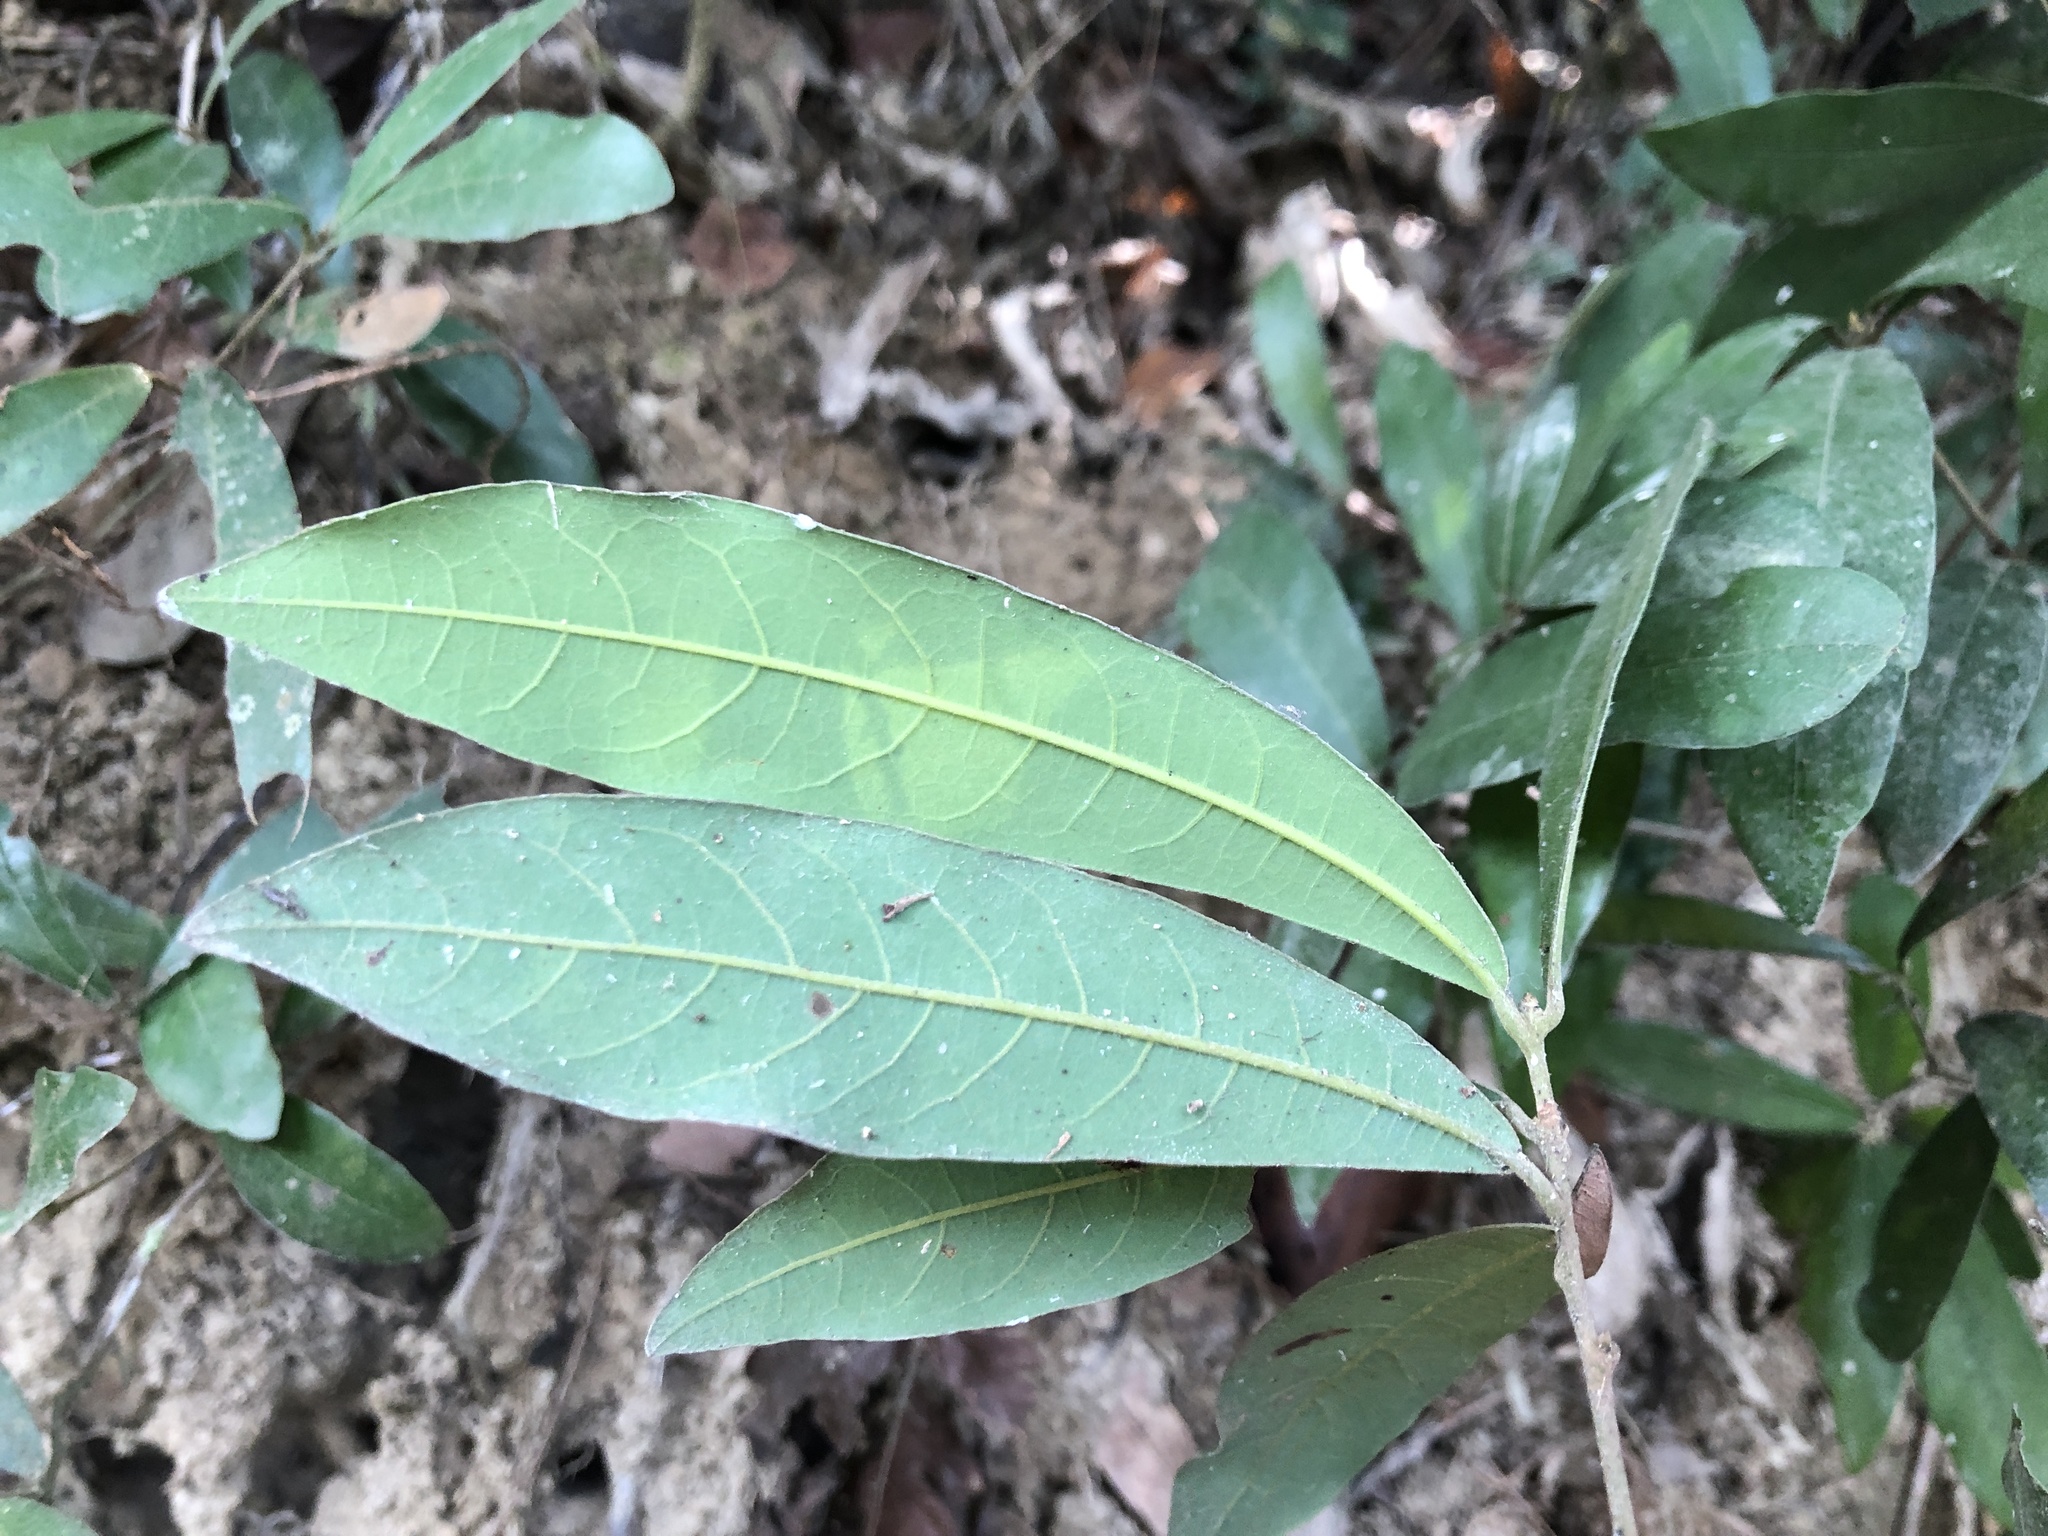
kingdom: Plantae
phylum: Tracheophyta
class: Magnoliopsida
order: Laurales
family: Lauraceae
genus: Litsea
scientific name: Litsea hypophaea
